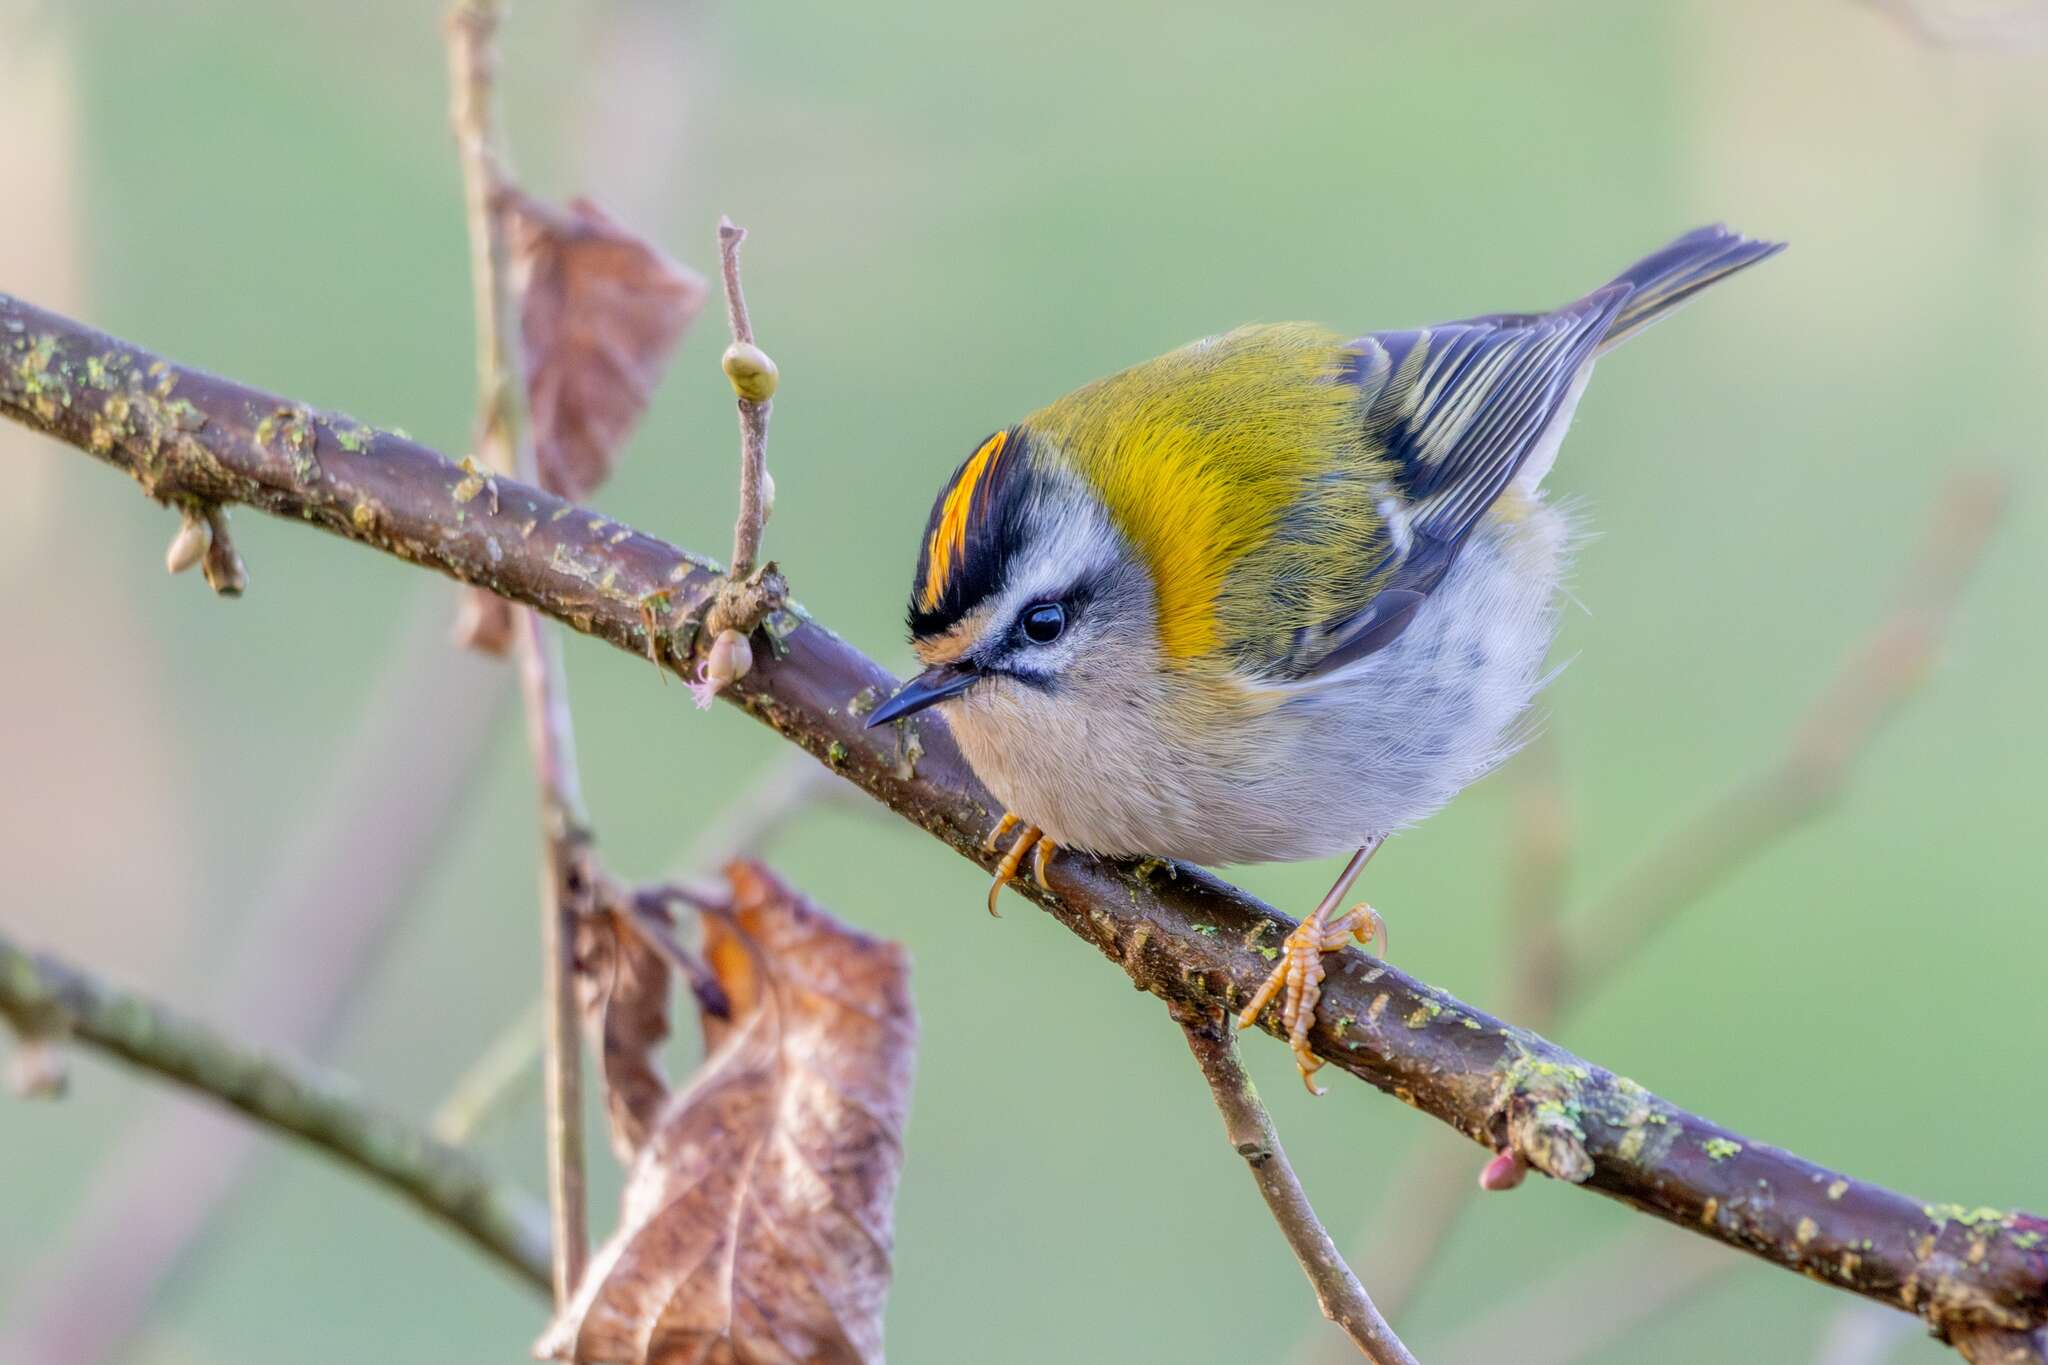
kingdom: Animalia
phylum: Chordata
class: Aves
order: Passeriformes
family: Regulidae
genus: Regulus
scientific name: Regulus ignicapilla
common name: Firecrest
